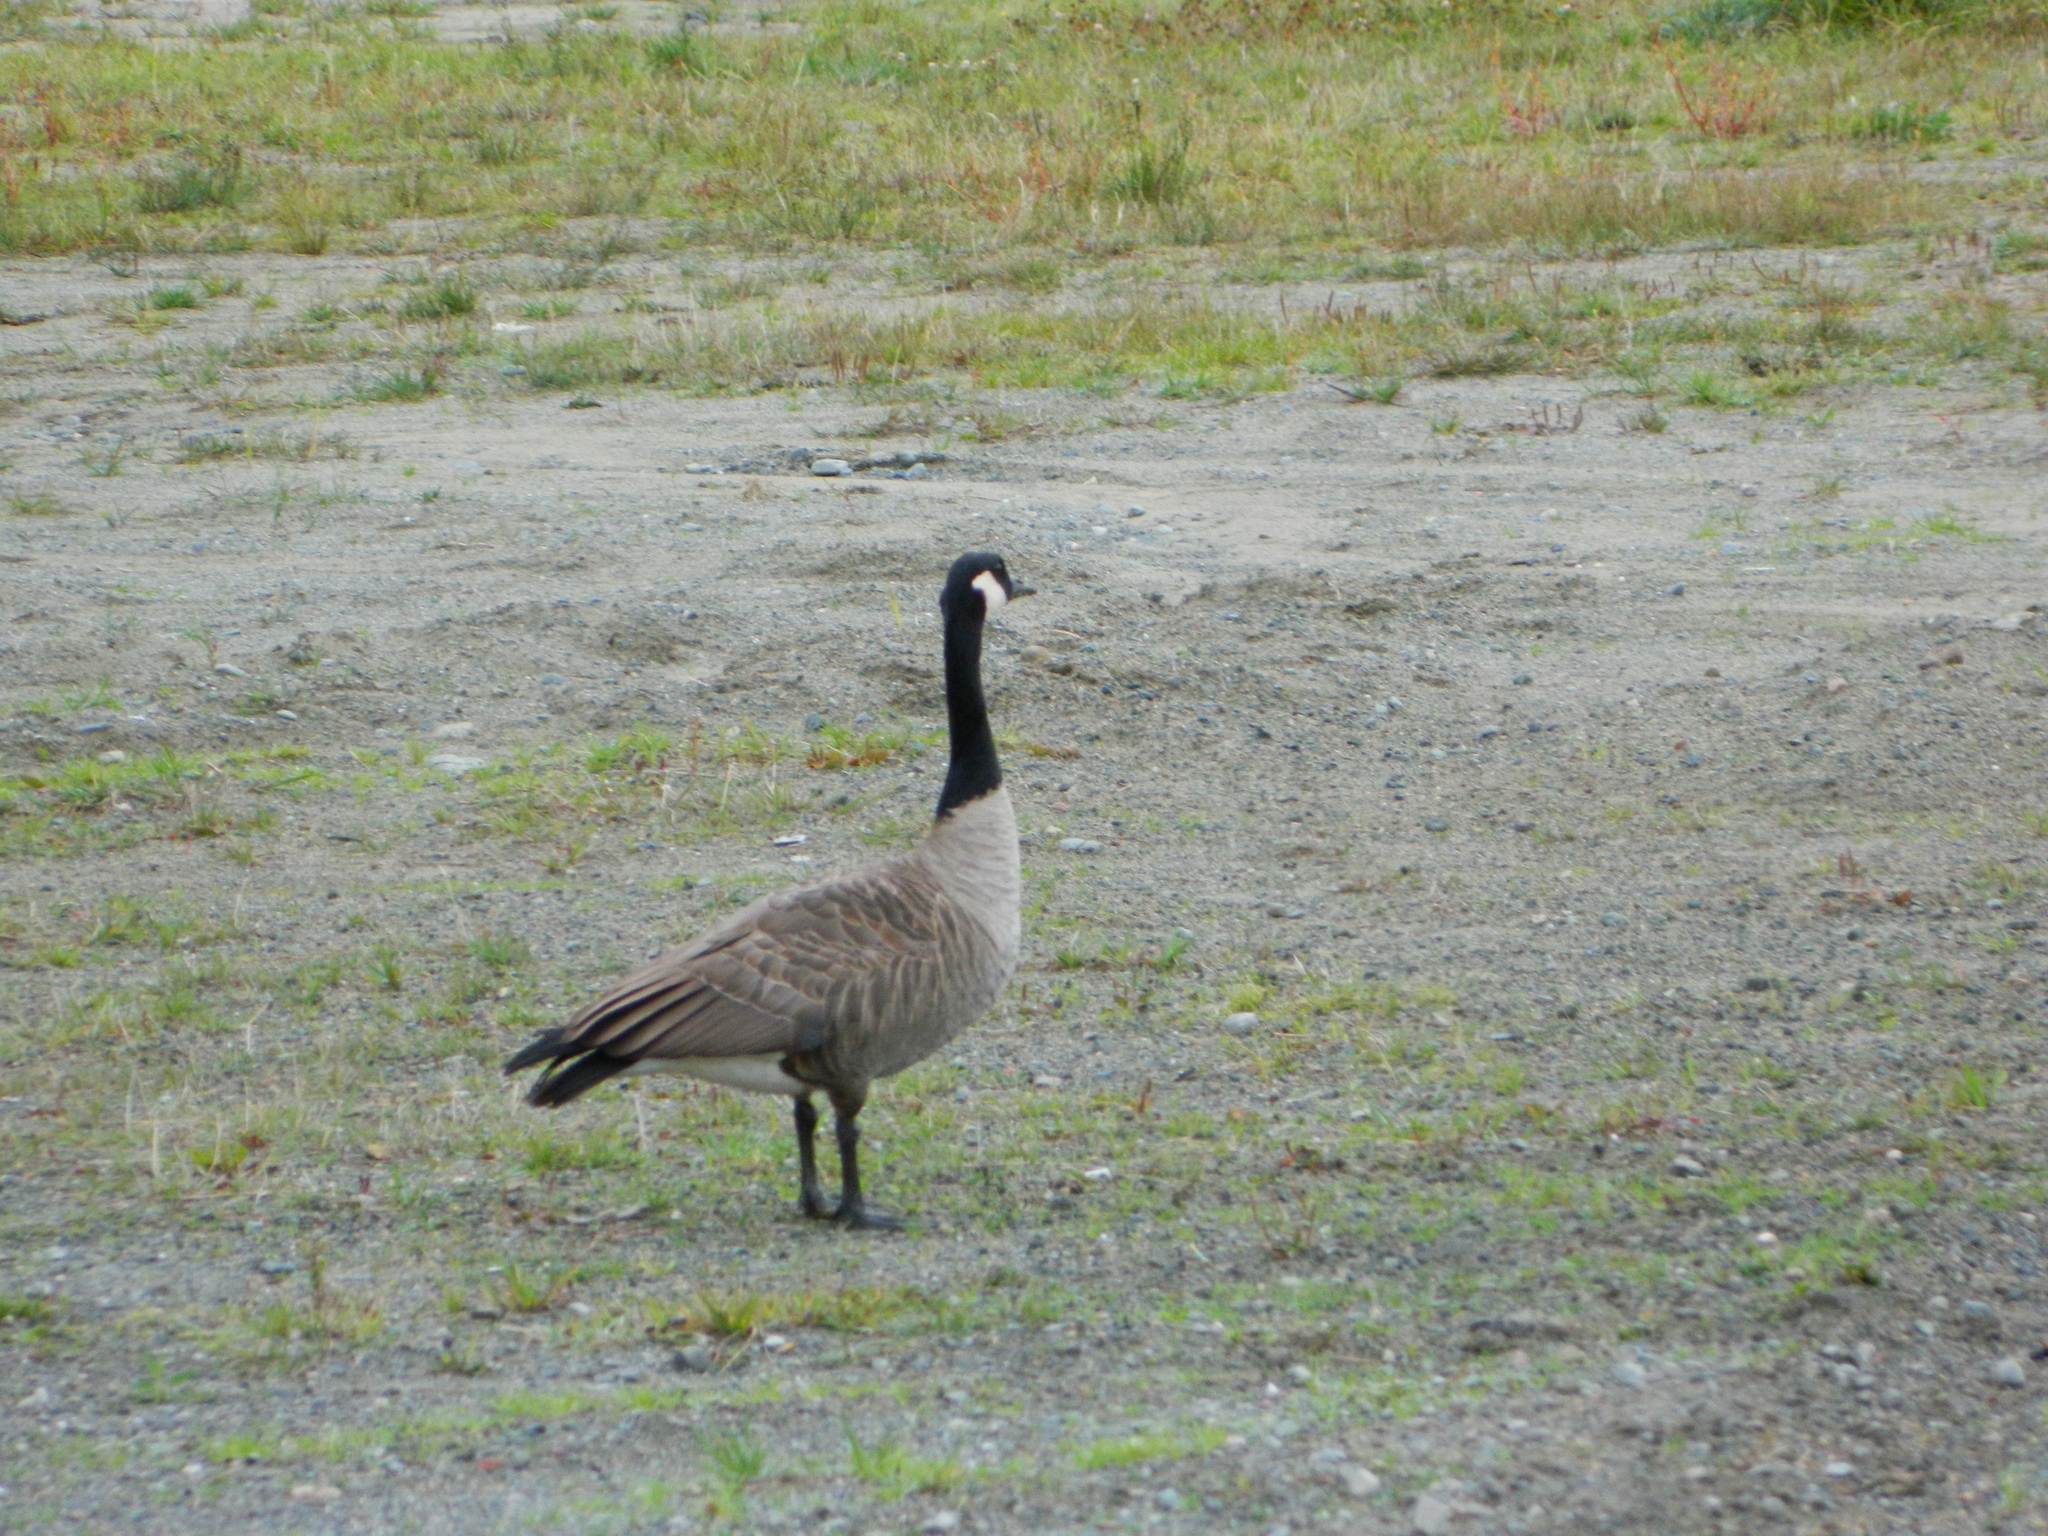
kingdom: Animalia
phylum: Chordata
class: Aves
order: Anseriformes
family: Anatidae
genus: Branta
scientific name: Branta canadensis
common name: Canada goose
